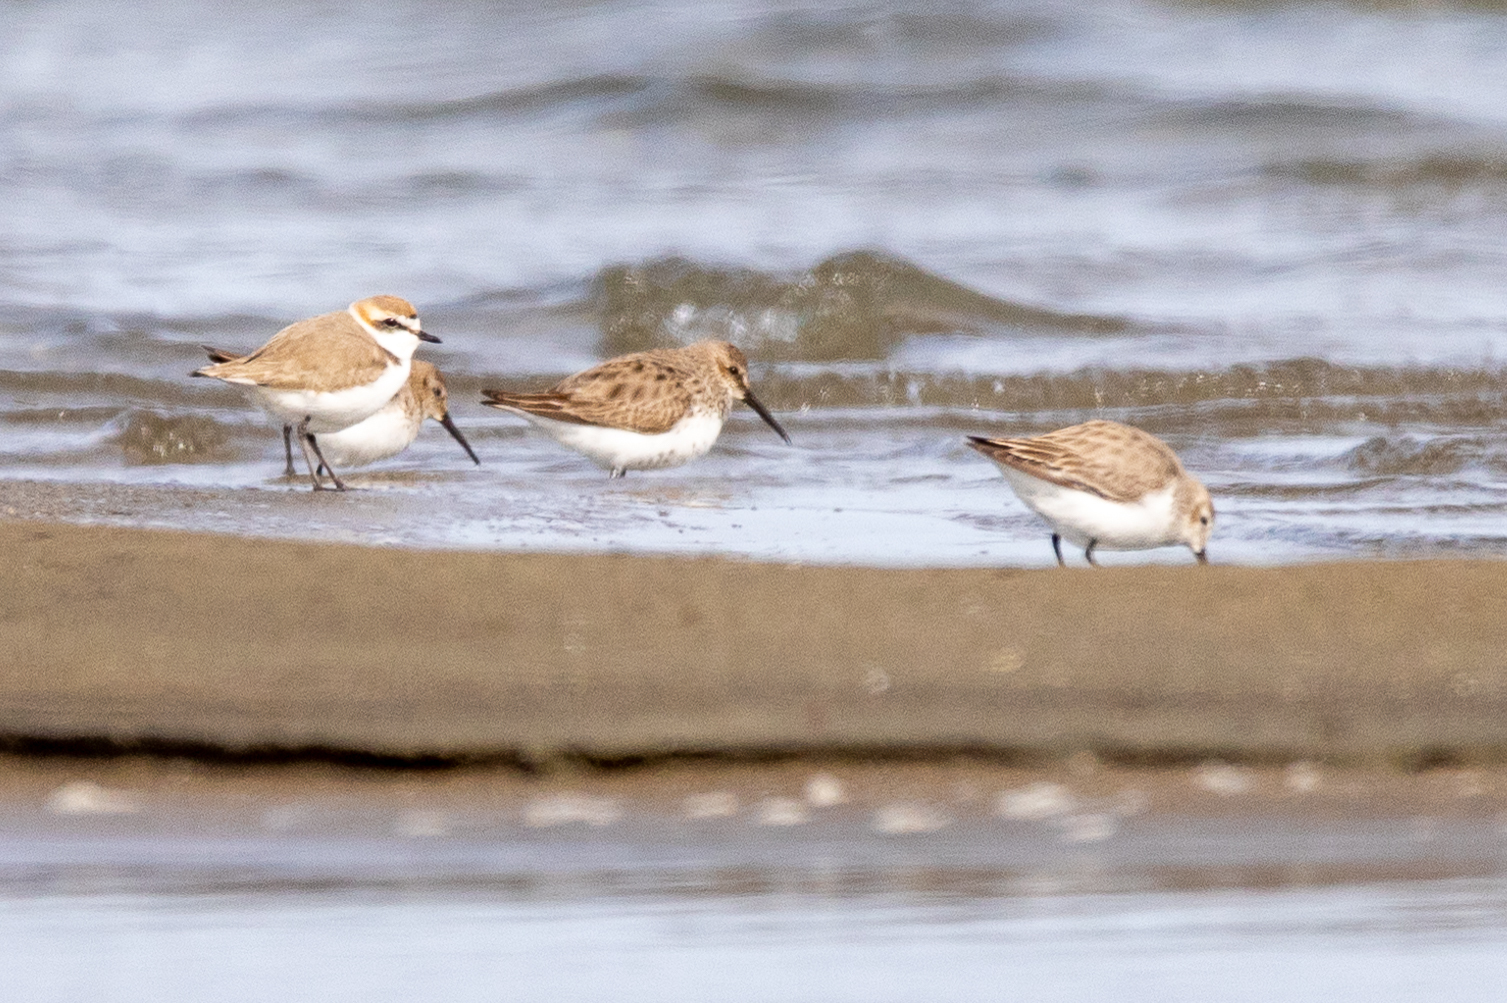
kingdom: Animalia
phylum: Chordata
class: Aves
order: Charadriiformes
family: Charadriidae
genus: Charadrius
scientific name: Charadrius alexandrinus
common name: Kentish plover
